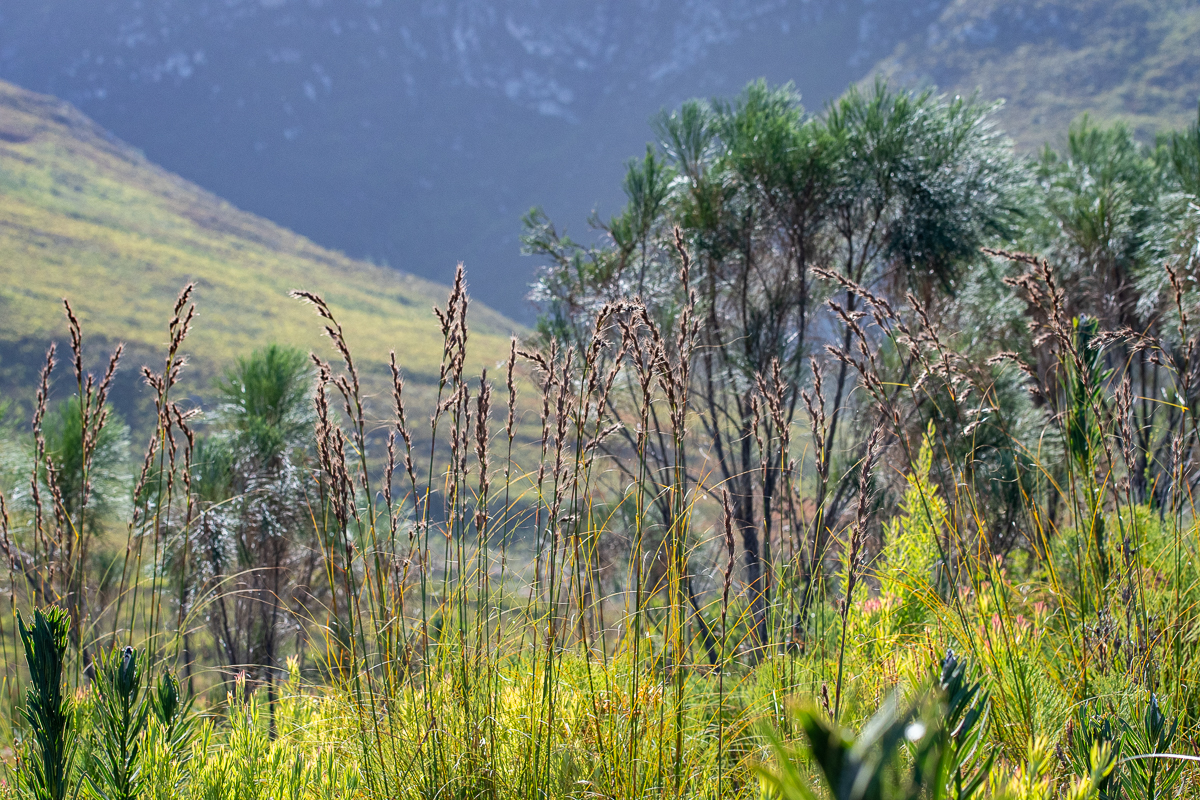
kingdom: Plantae
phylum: Tracheophyta
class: Liliopsida
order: Poales
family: Cyperaceae
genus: Tetraria
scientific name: Tetraria bromoides
